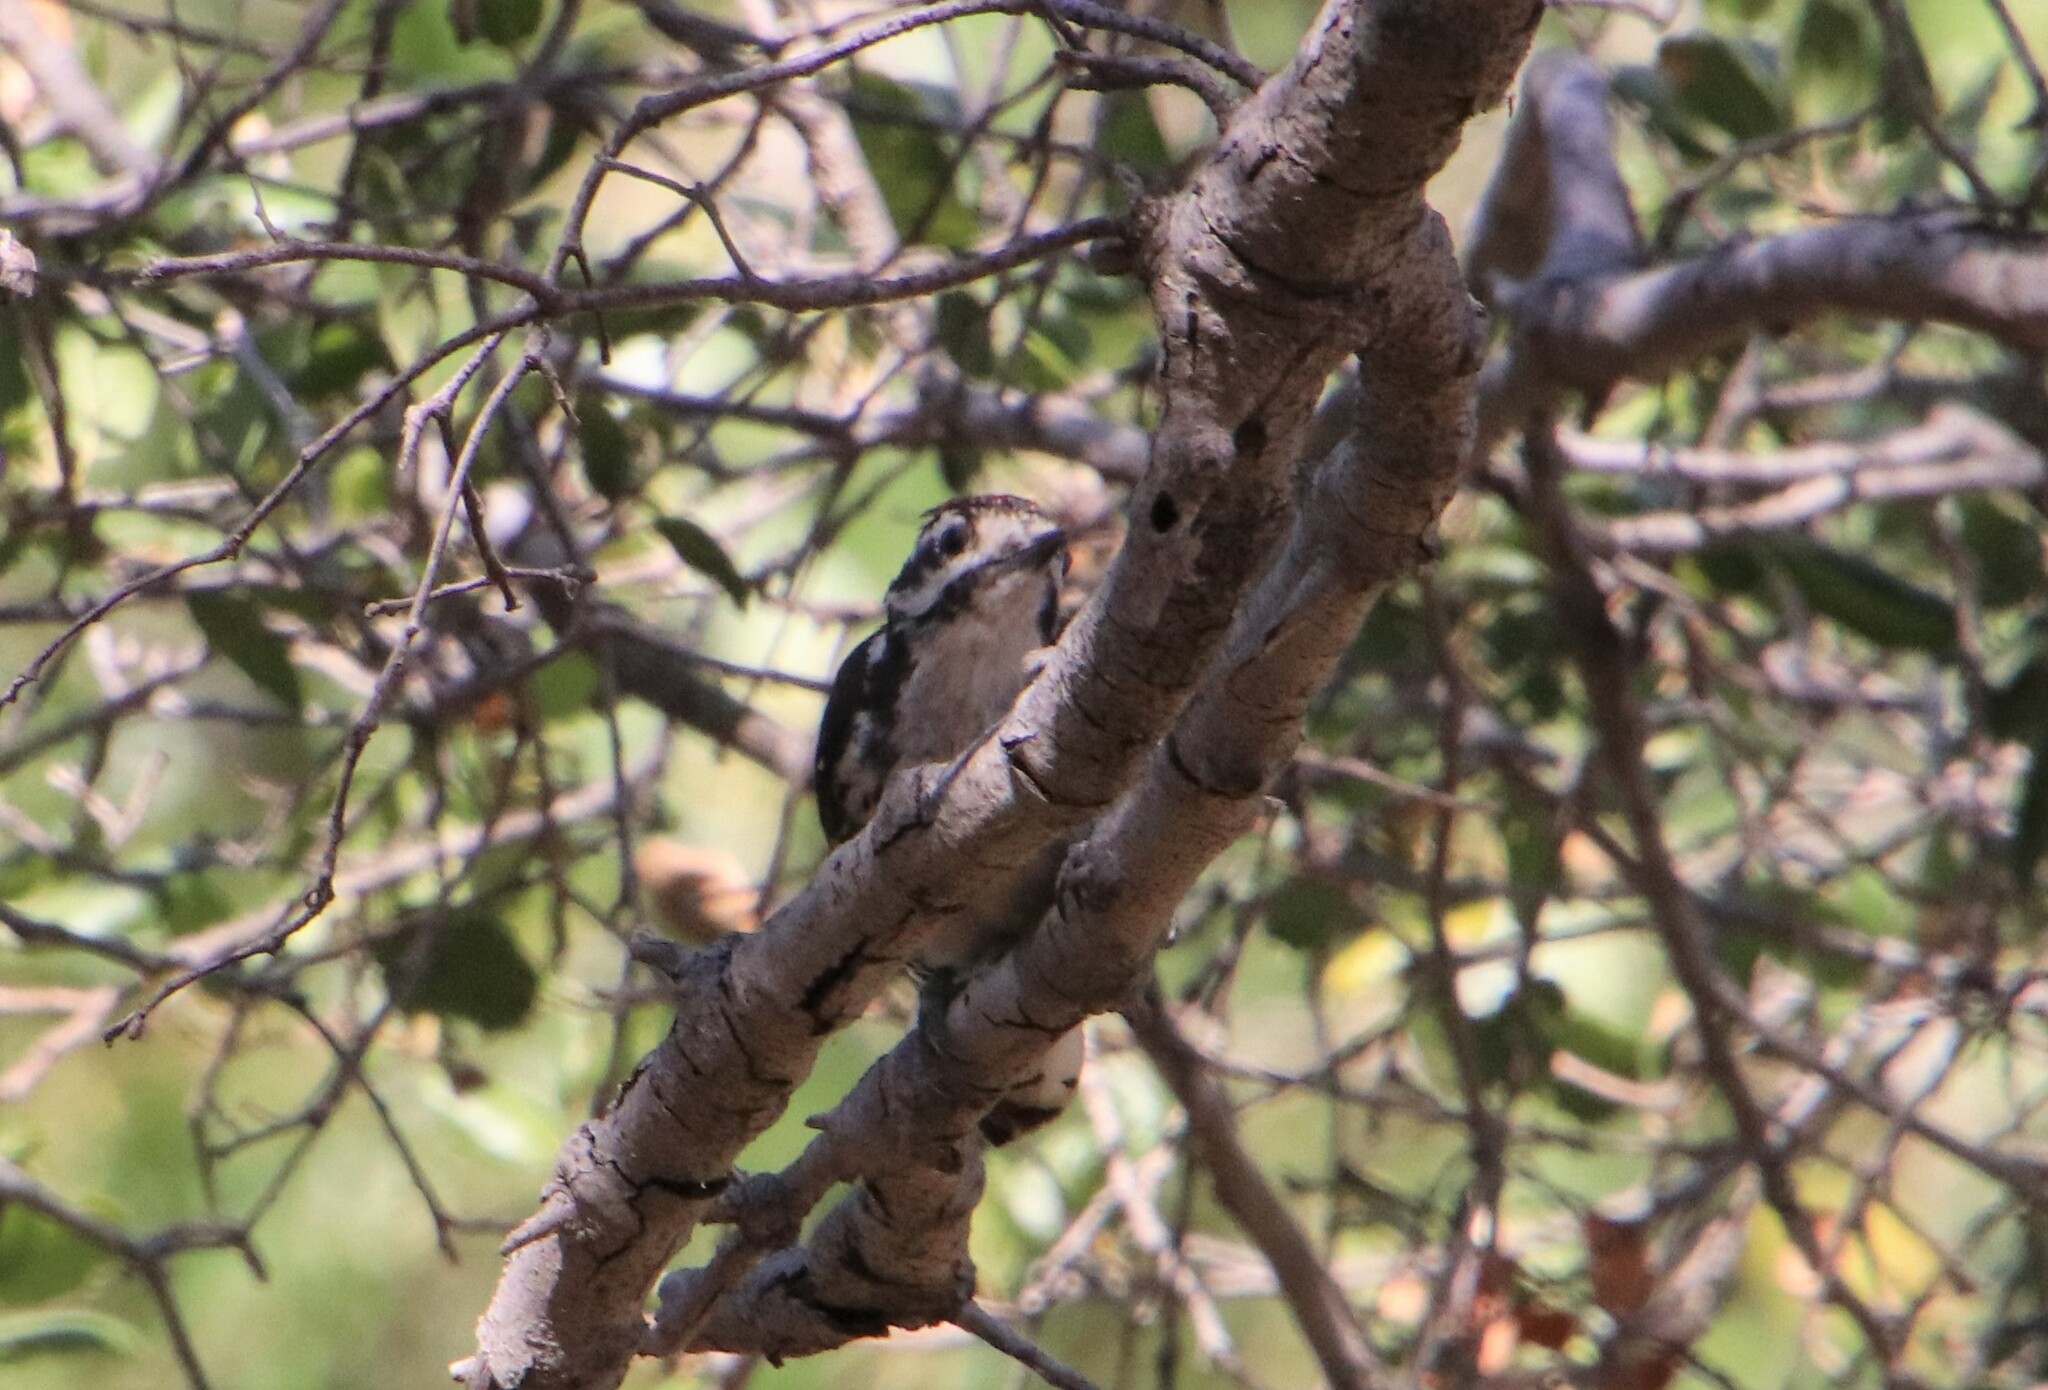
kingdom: Animalia
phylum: Chordata
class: Aves
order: Piciformes
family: Picidae
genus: Dryobates
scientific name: Dryobates nuttallii
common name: Nuttall's woodpecker
